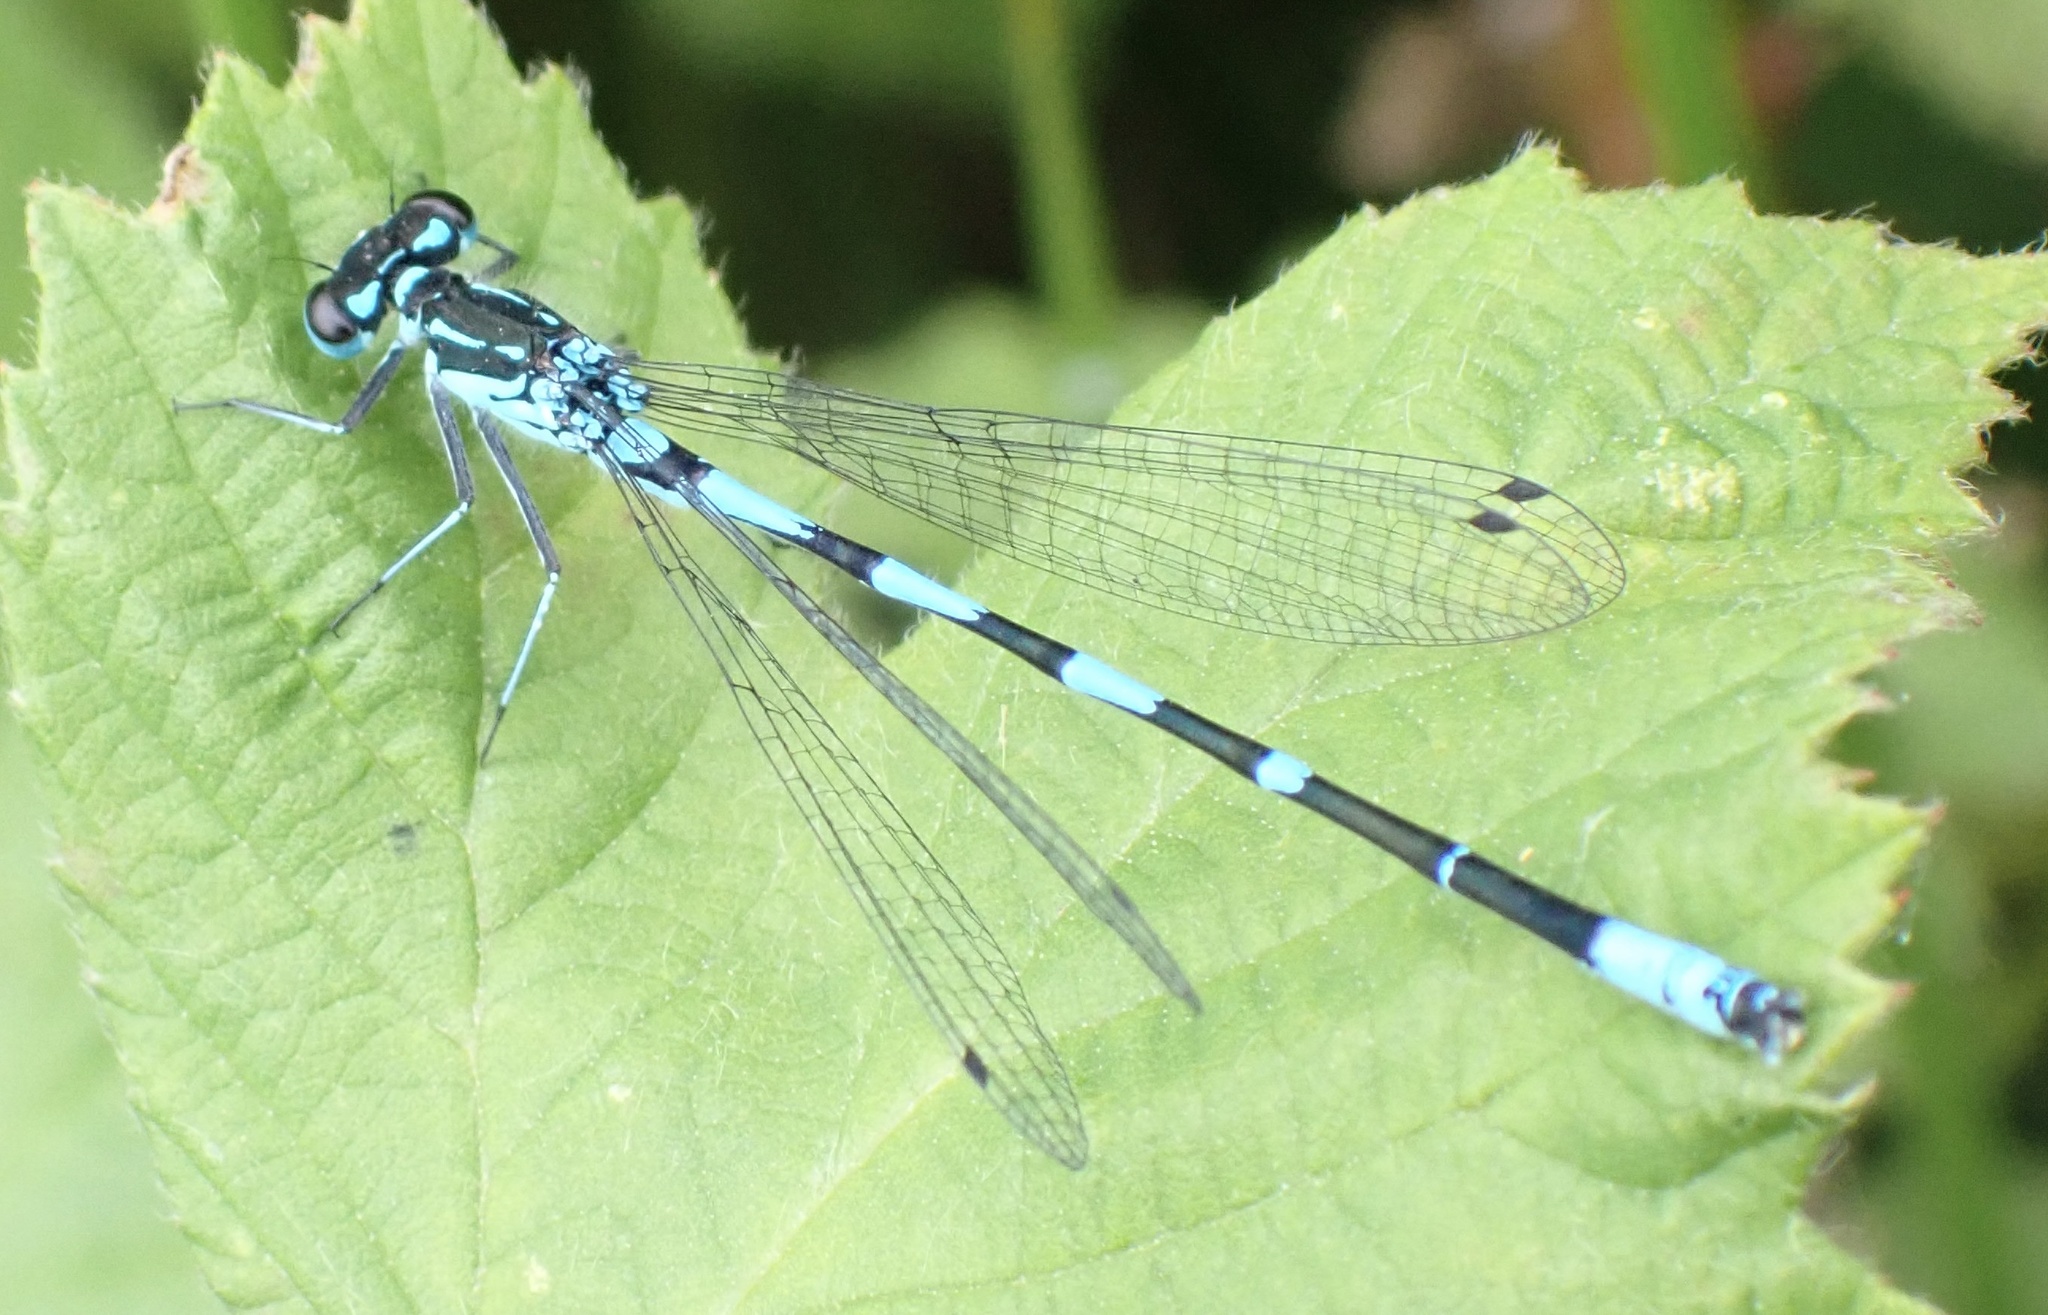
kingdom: Animalia
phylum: Arthropoda
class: Insecta
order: Odonata
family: Coenagrionidae
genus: Coenagrion
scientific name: Coenagrion pulchellum
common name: Variable bluet
